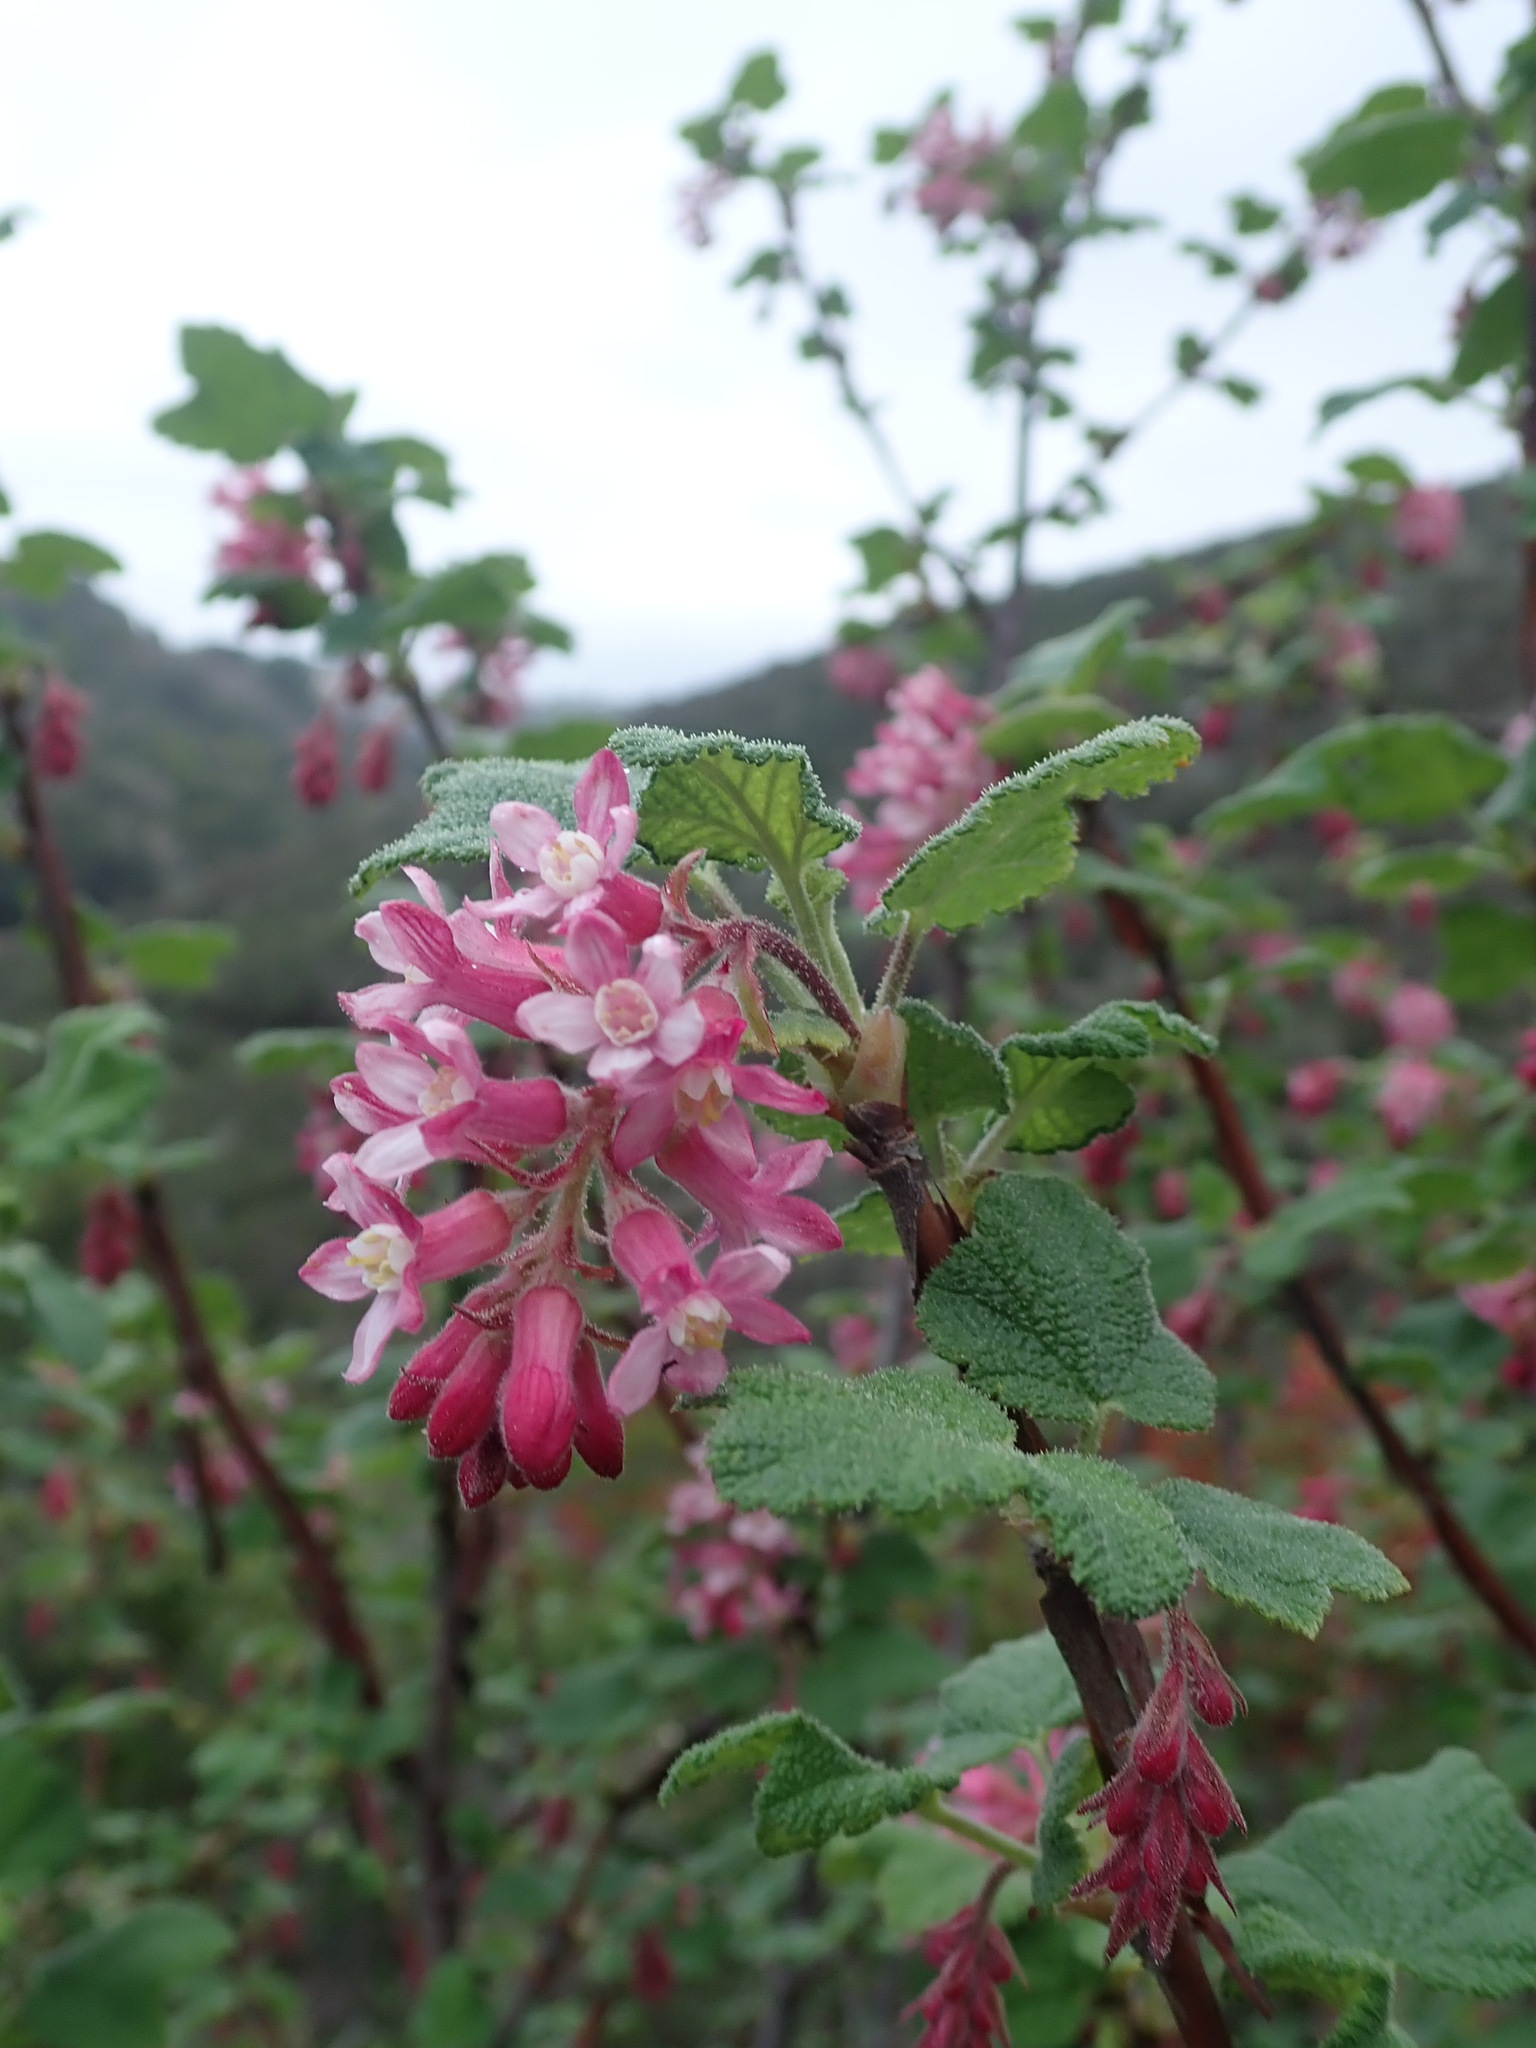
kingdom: Plantae
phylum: Tracheophyta
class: Magnoliopsida
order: Saxifragales
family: Grossulariaceae
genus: Ribes
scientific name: Ribes malvaceum
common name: Chaparral currant
